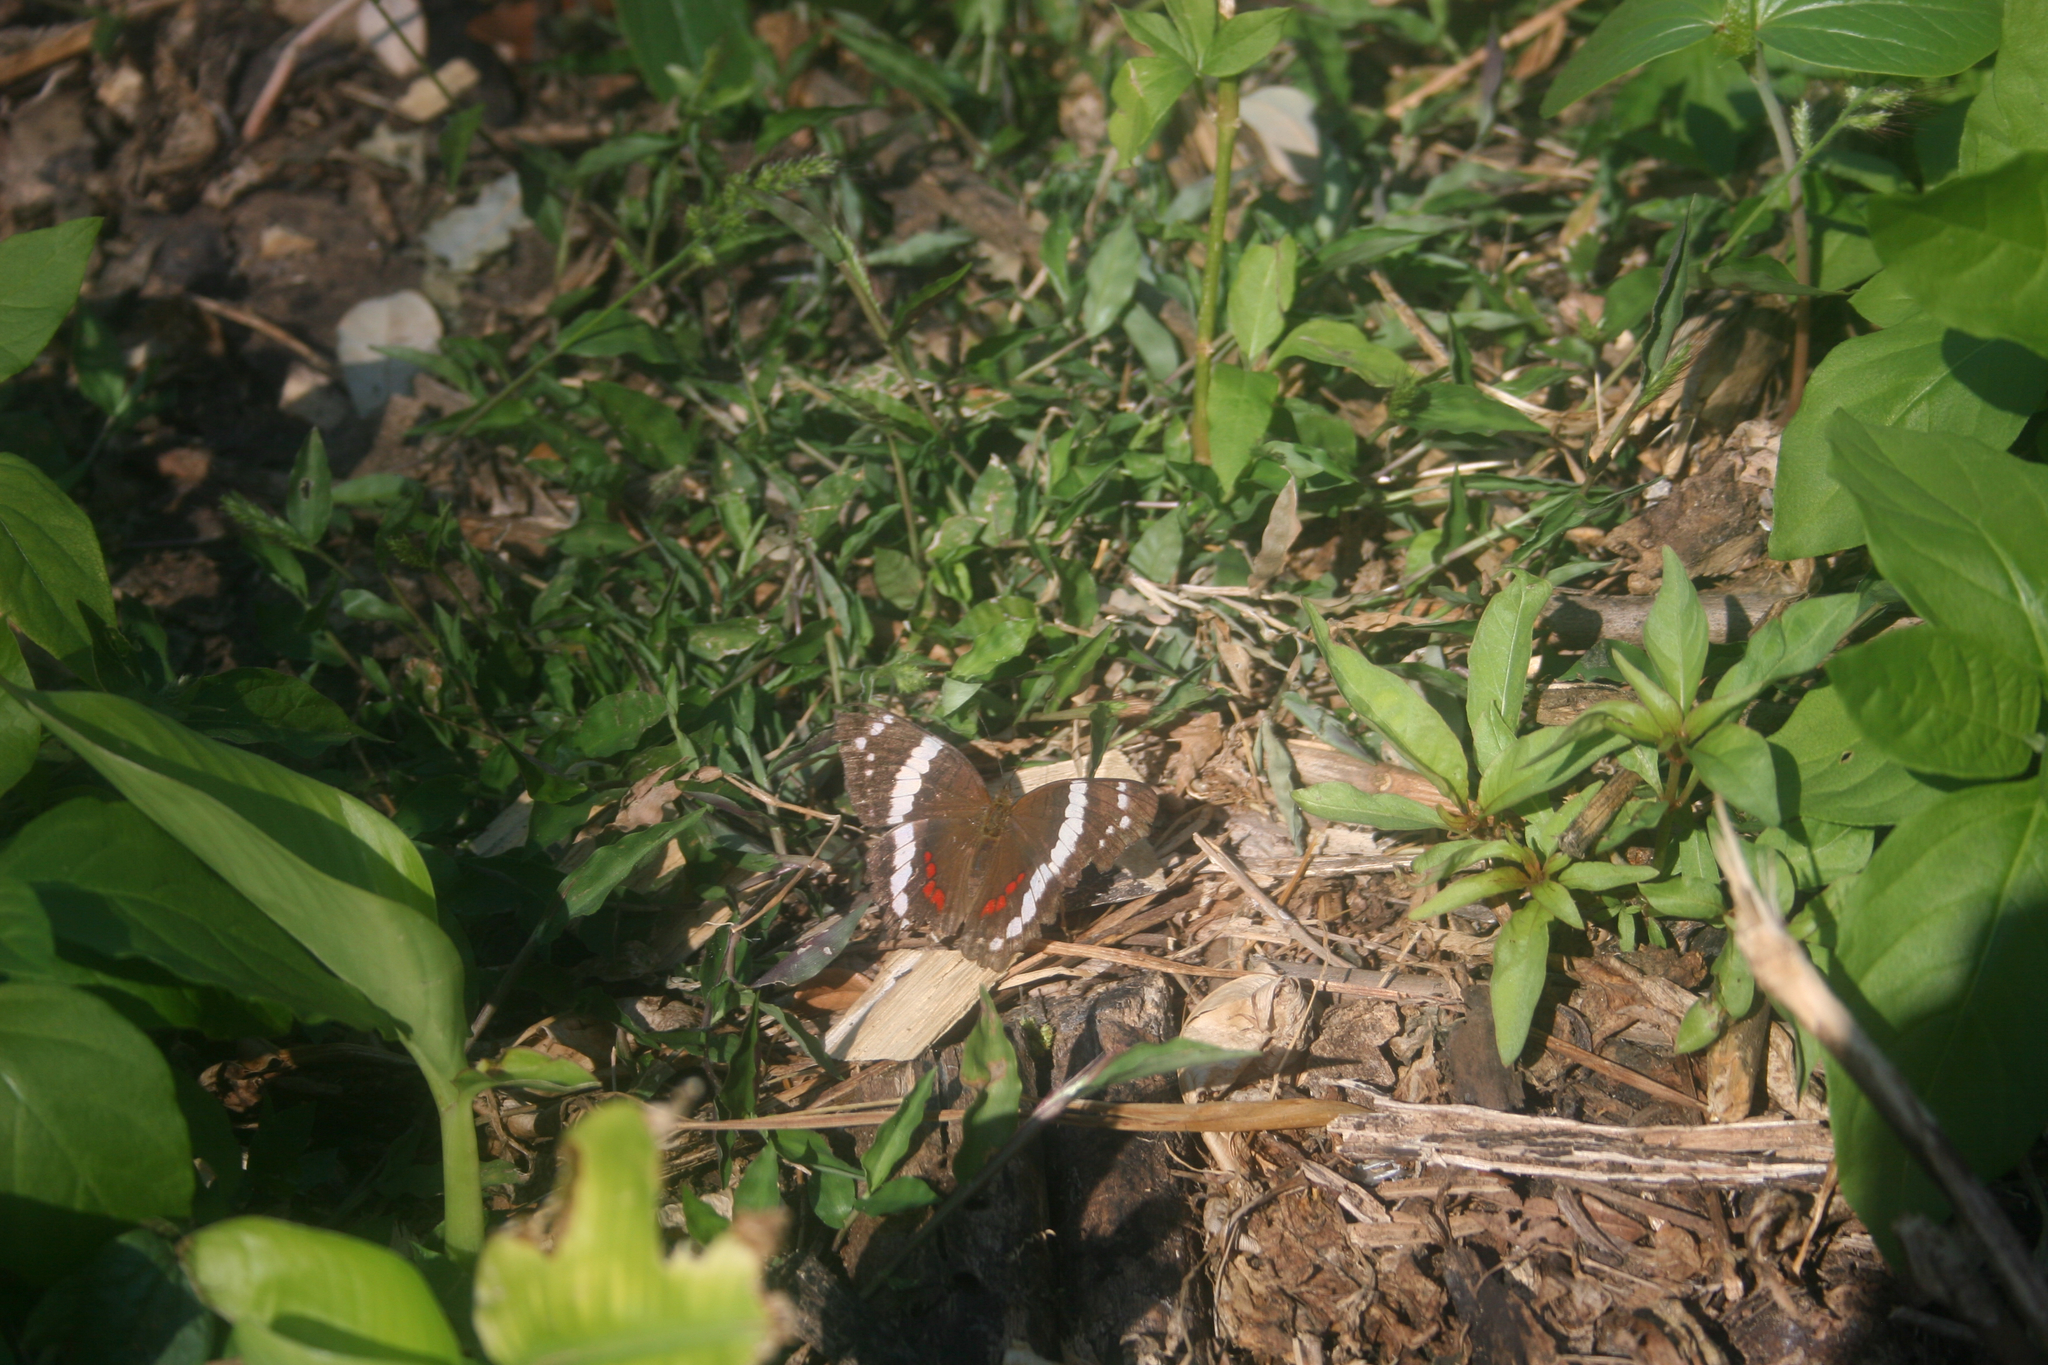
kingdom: Animalia
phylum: Arthropoda
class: Insecta
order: Lepidoptera
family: Nymphalidae
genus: Anartia
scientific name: Anartia fatima
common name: Banded peacock
